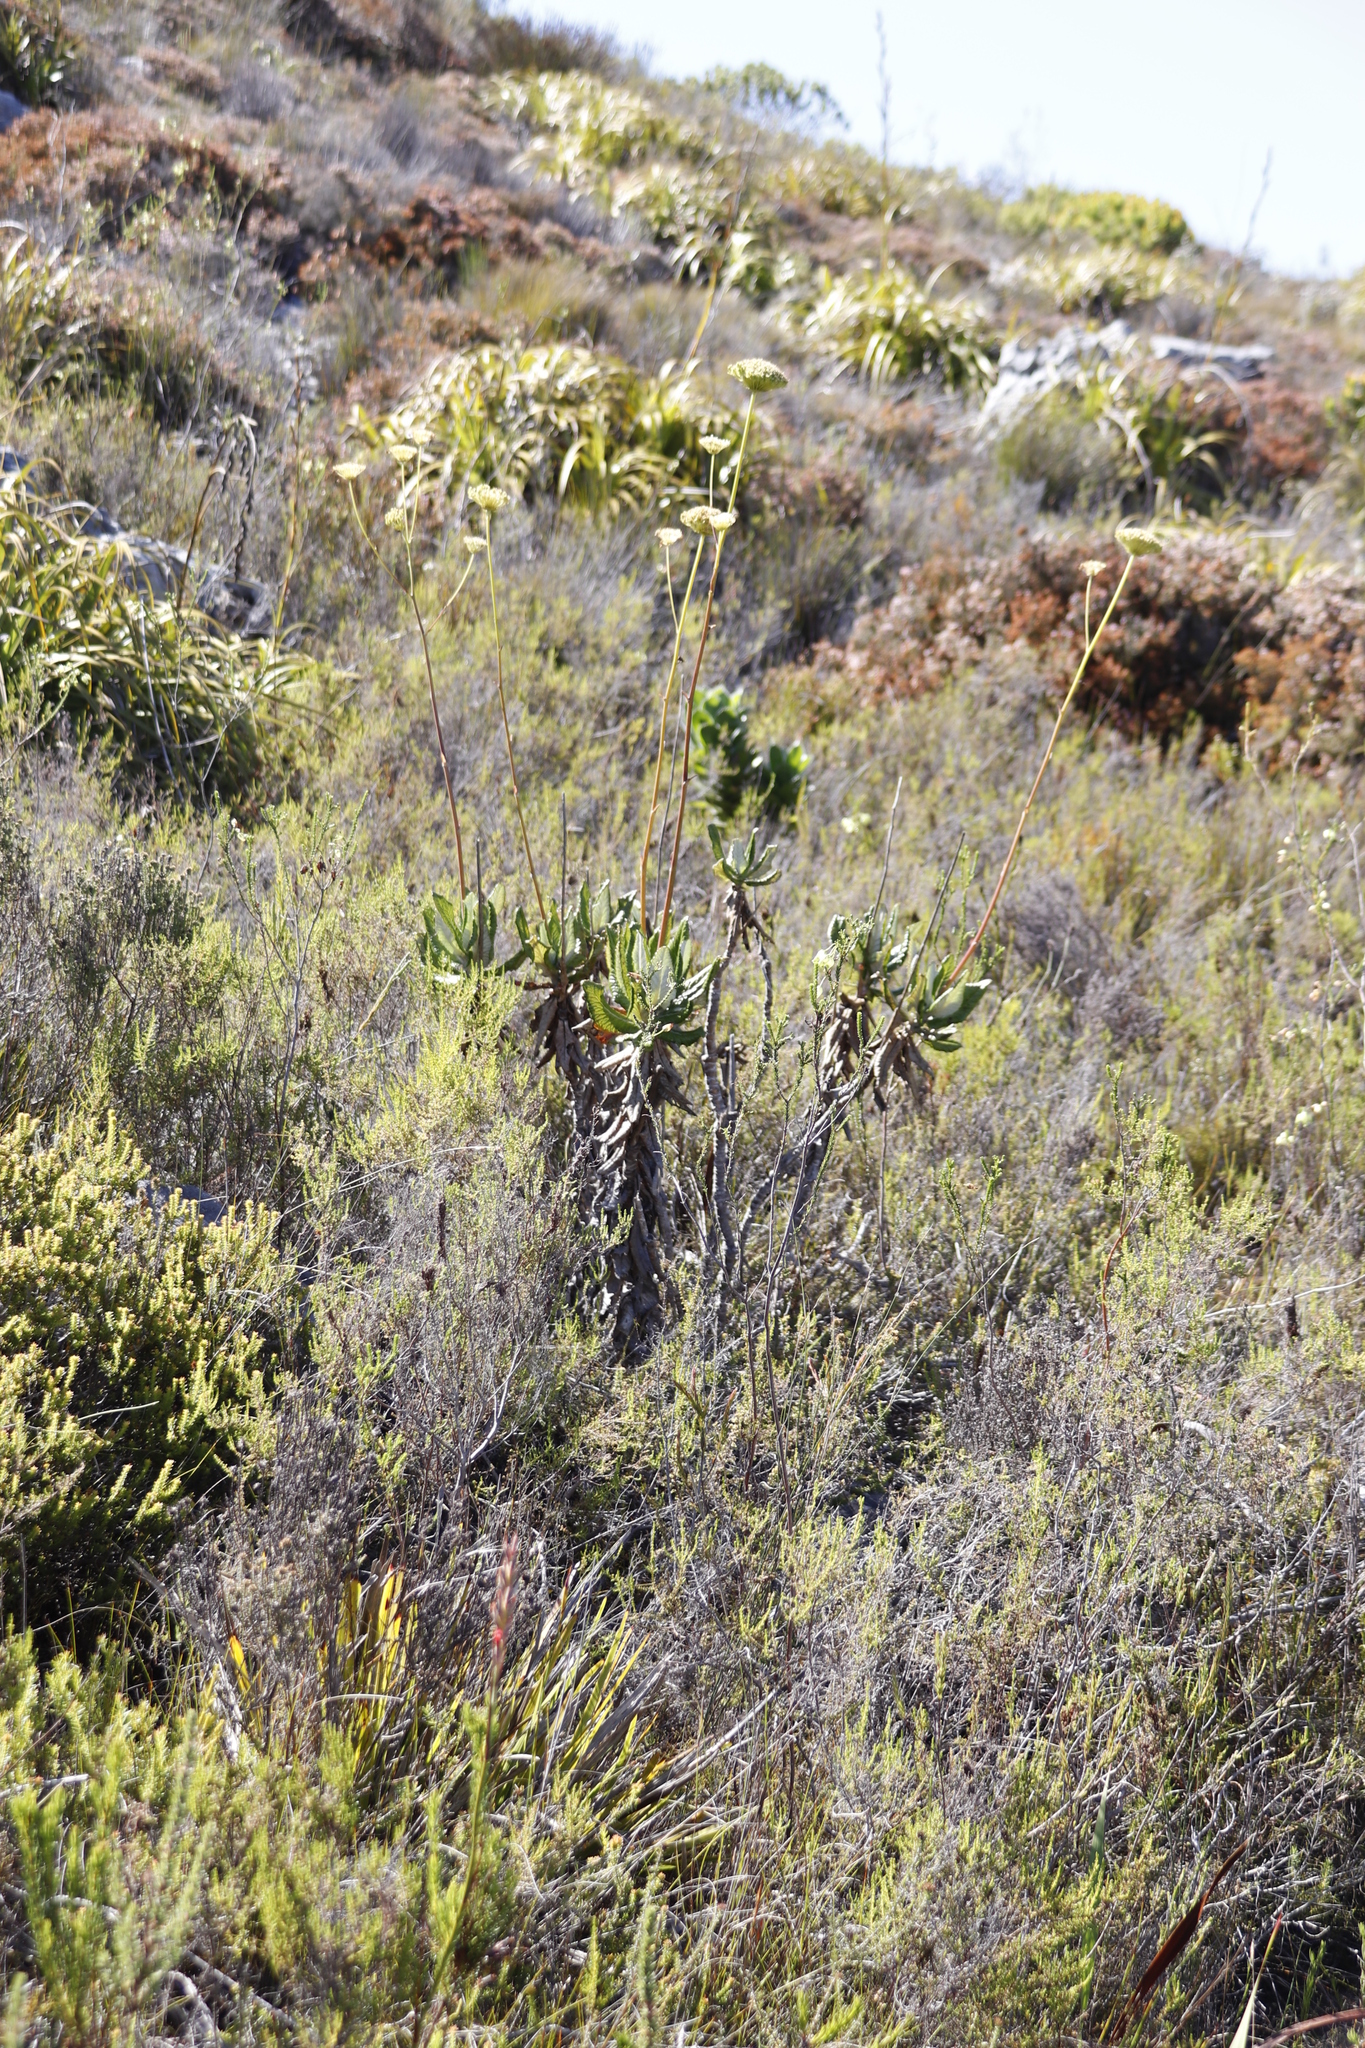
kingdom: Plantae
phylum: Tracheophyta
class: Magnoliopsida
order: Apiales
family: Apiaceae
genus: Hermas
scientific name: Hermas villosa
